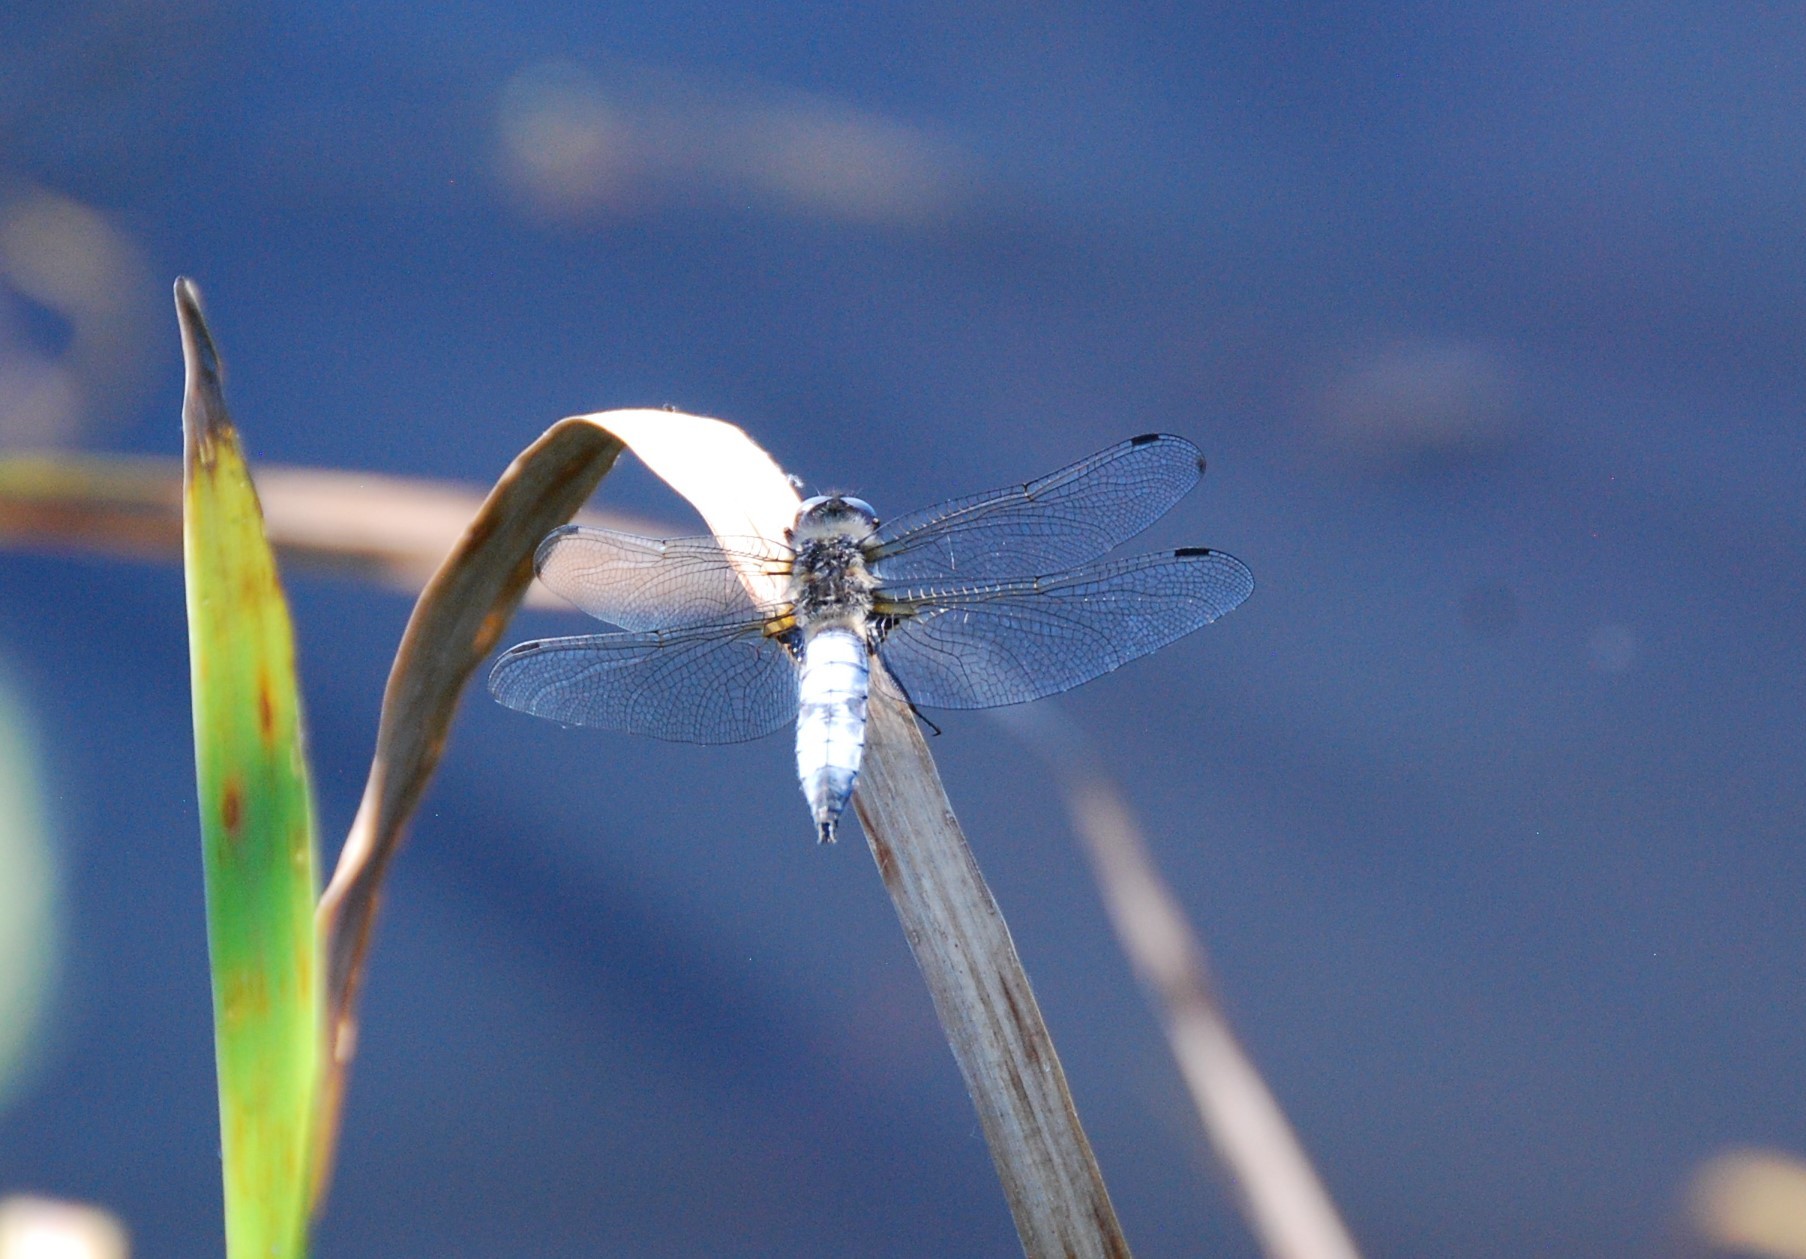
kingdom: Animalia
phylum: Arthropoda
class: Insecta
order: Odonata
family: Libellulidae
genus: Libellula
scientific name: Libellula fulva
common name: Blue chaser
